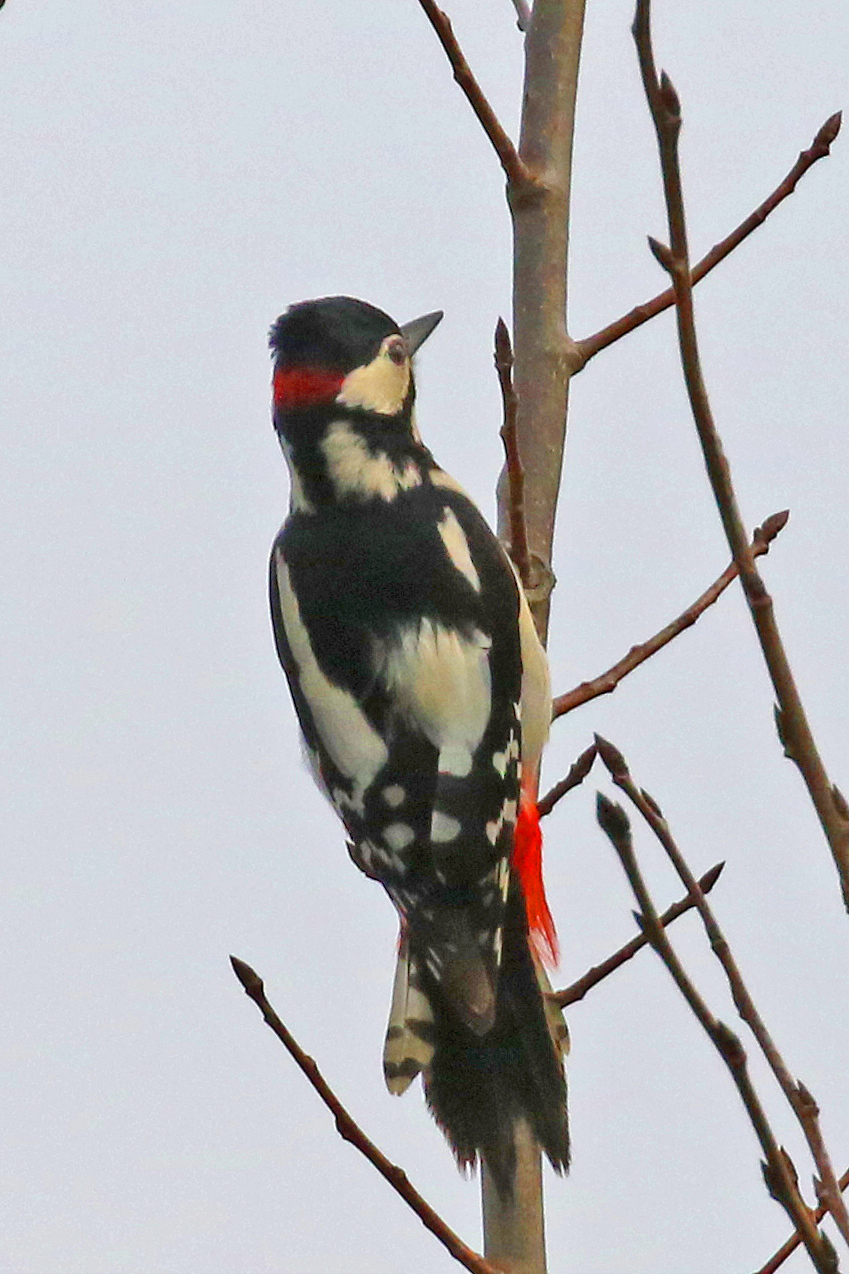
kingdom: Animalia
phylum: Chordata
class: Aves
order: Piciformes
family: Picidae
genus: Dendrocopos
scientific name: Dendrocopos major
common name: Great spotted woodpecker
